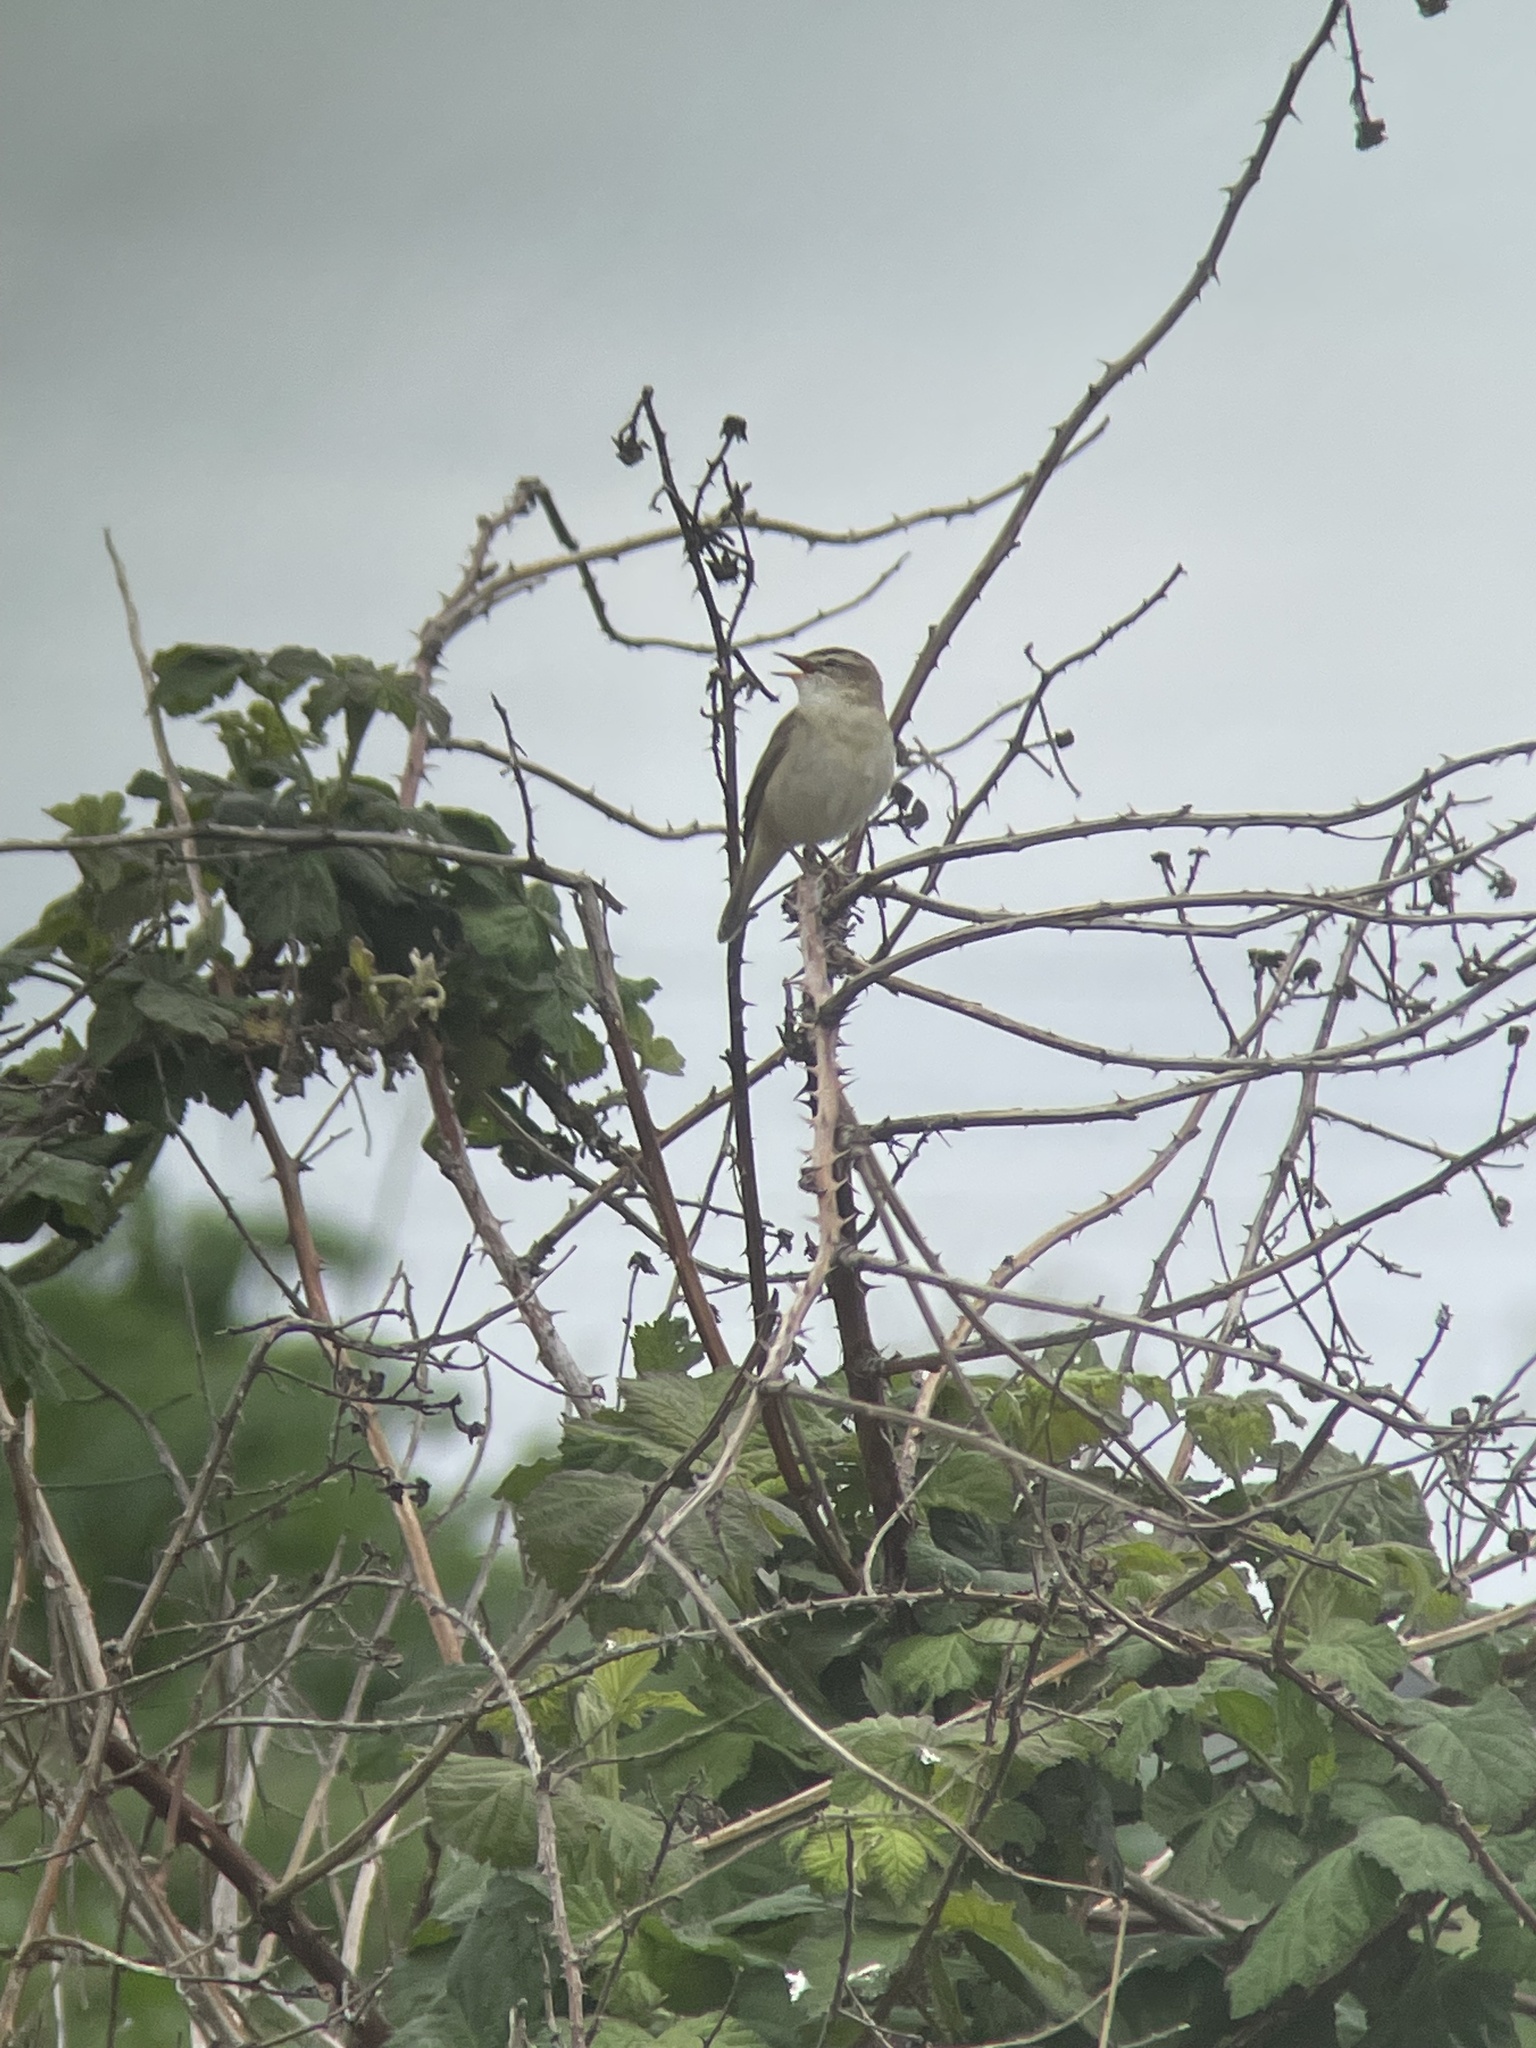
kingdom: Animalia
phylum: Chordata
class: Aves
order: Passeriformes
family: Acrocephalidae
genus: Acrocephalus
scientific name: Acrocephalus schoenobaenus
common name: Sedge warbler
